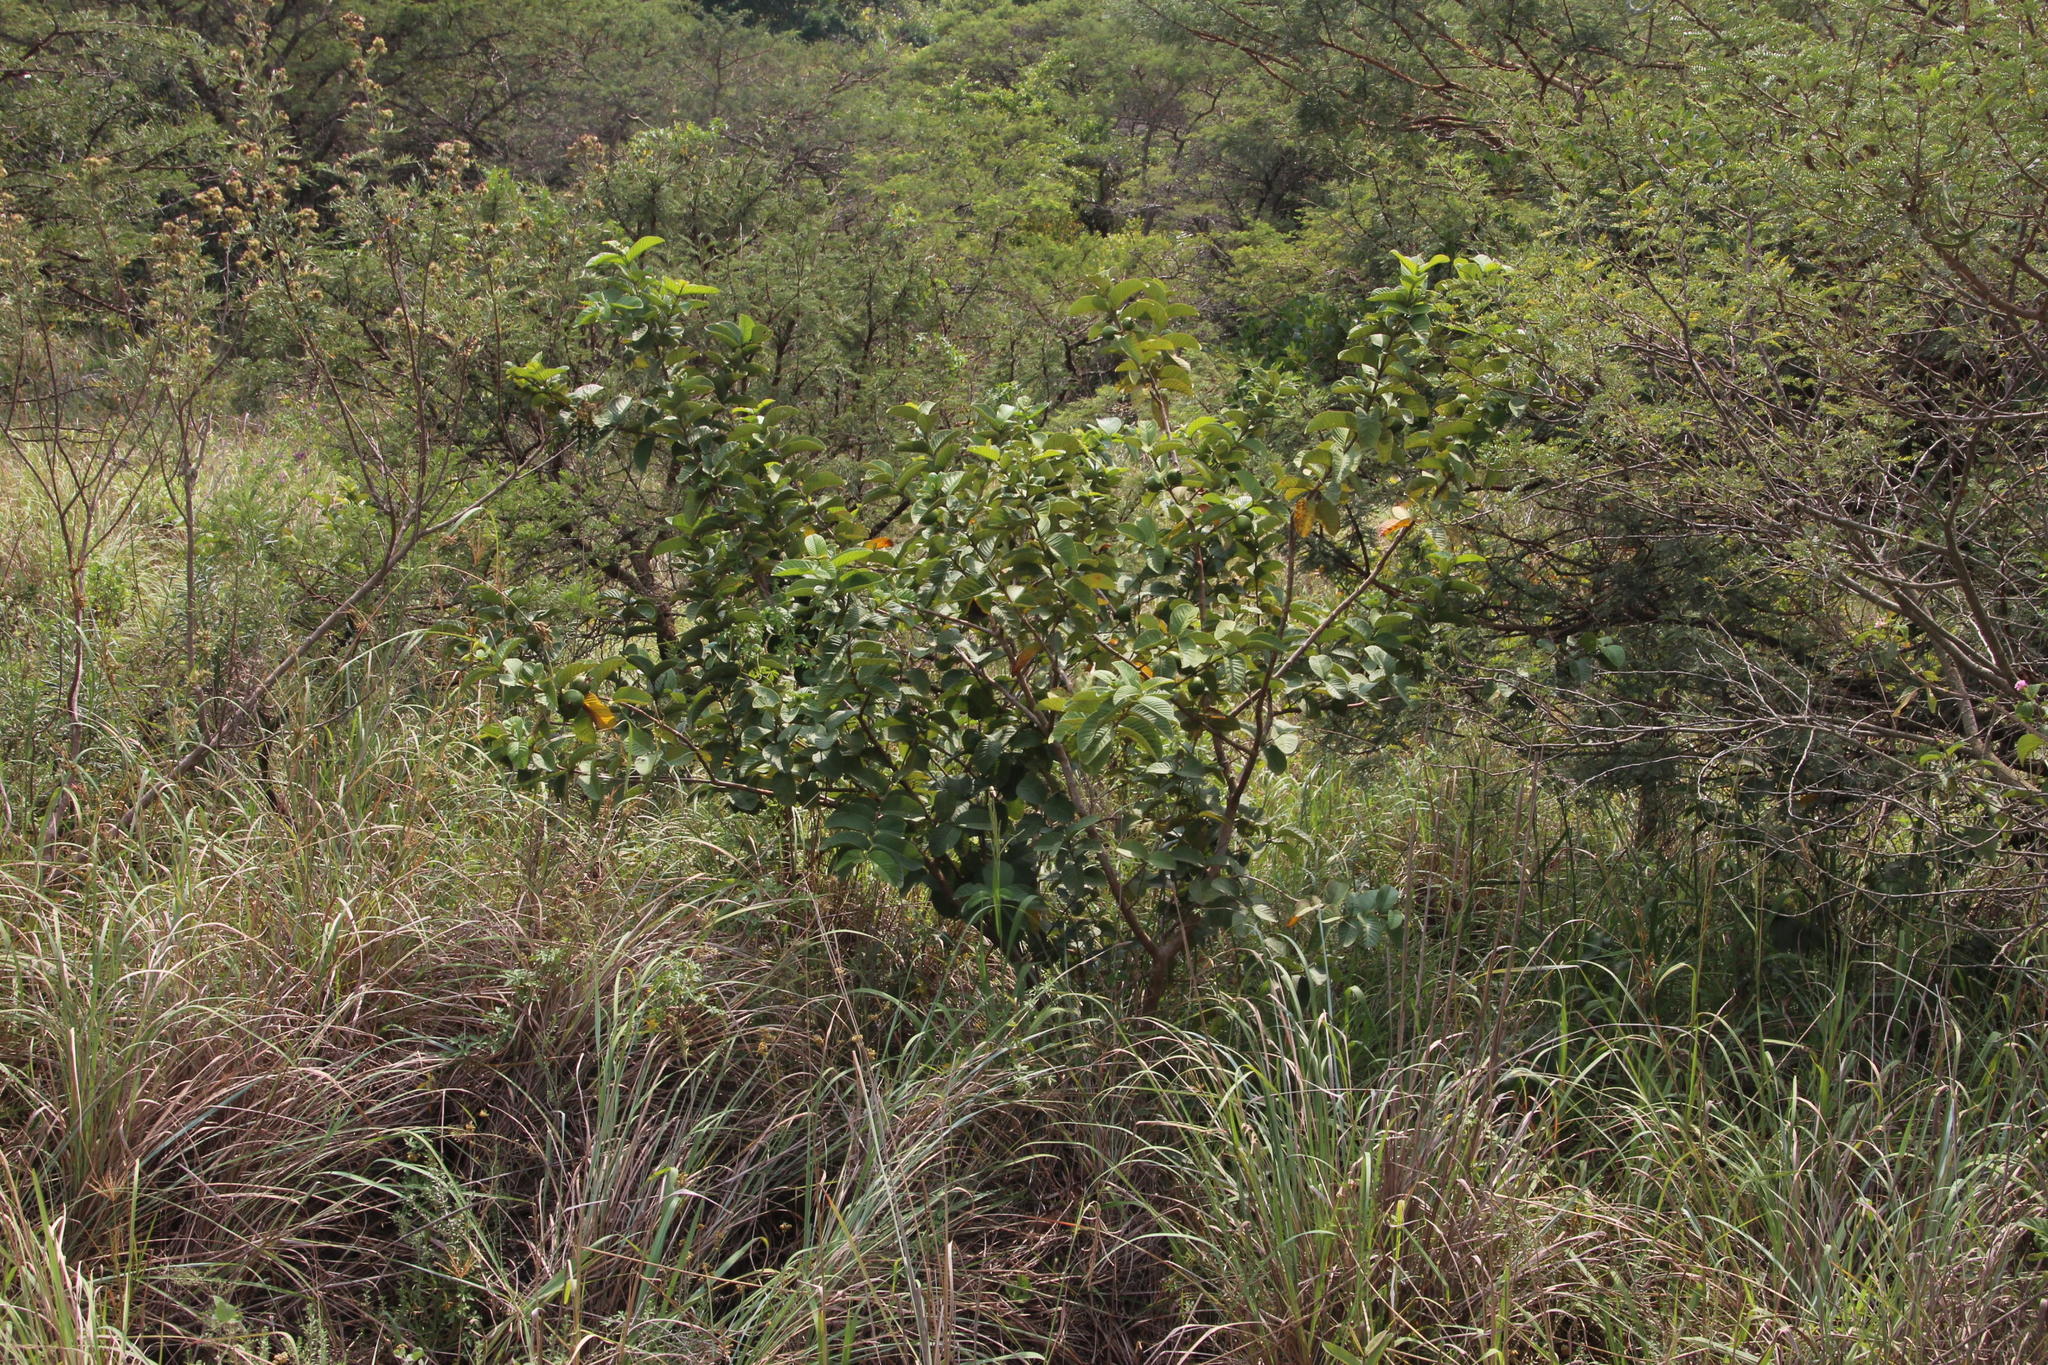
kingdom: Plantae
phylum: Tracheophyta
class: Magnoliopsida
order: Myrtales
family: Myrtaceae
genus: Psidium
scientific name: Psidium guajava
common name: Guava
